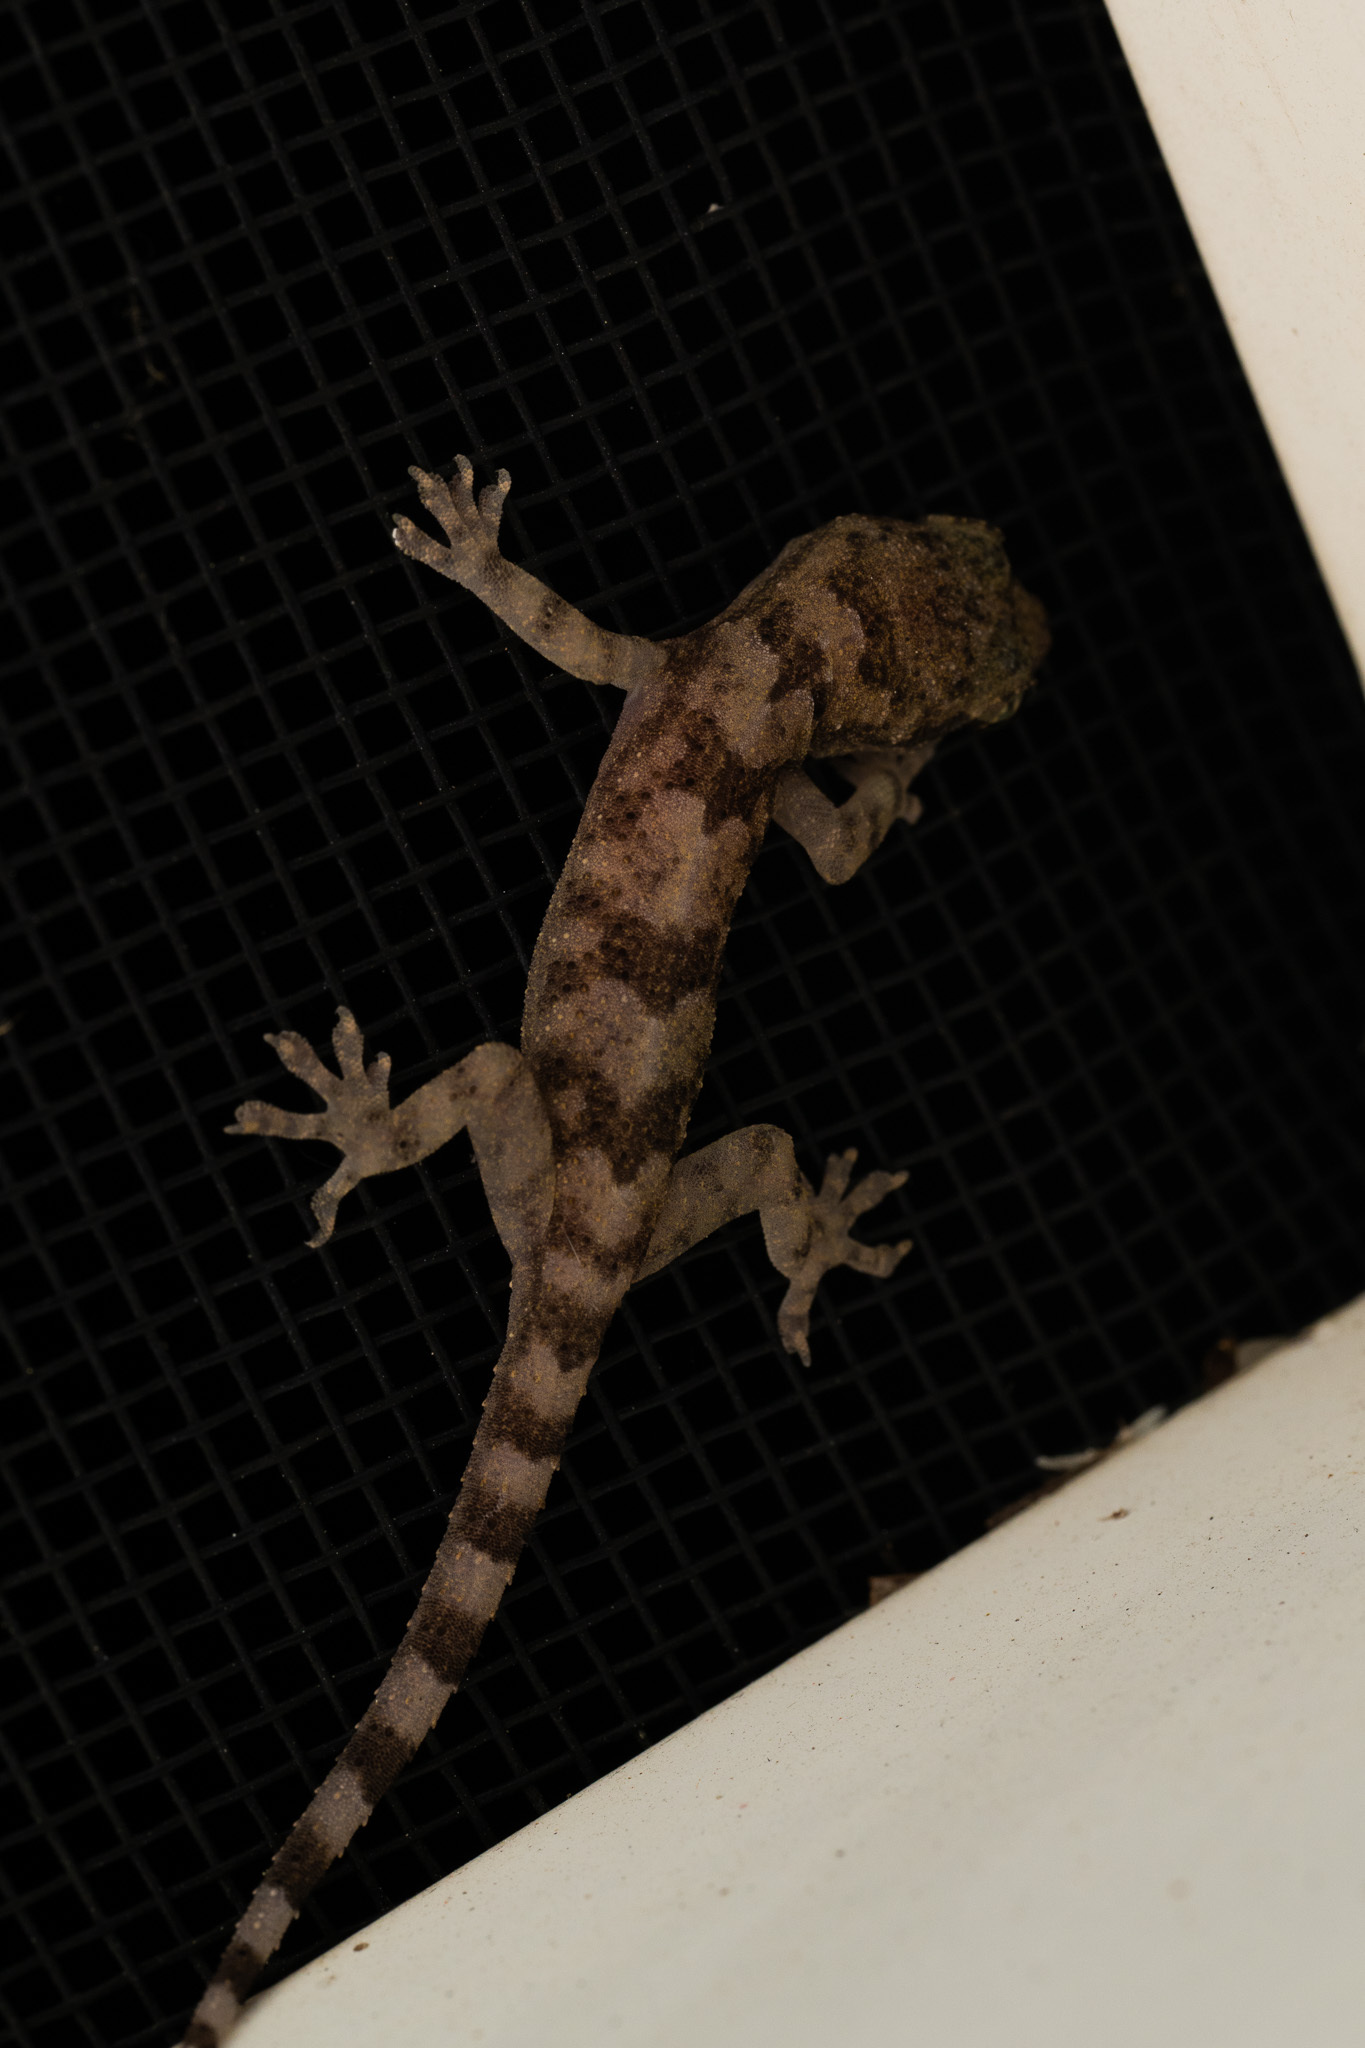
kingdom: Animalia
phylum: Chordata
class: Squamata
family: Gekkonidae
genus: Hemidactylus
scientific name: Hemidactylus mabouia
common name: House gecko
